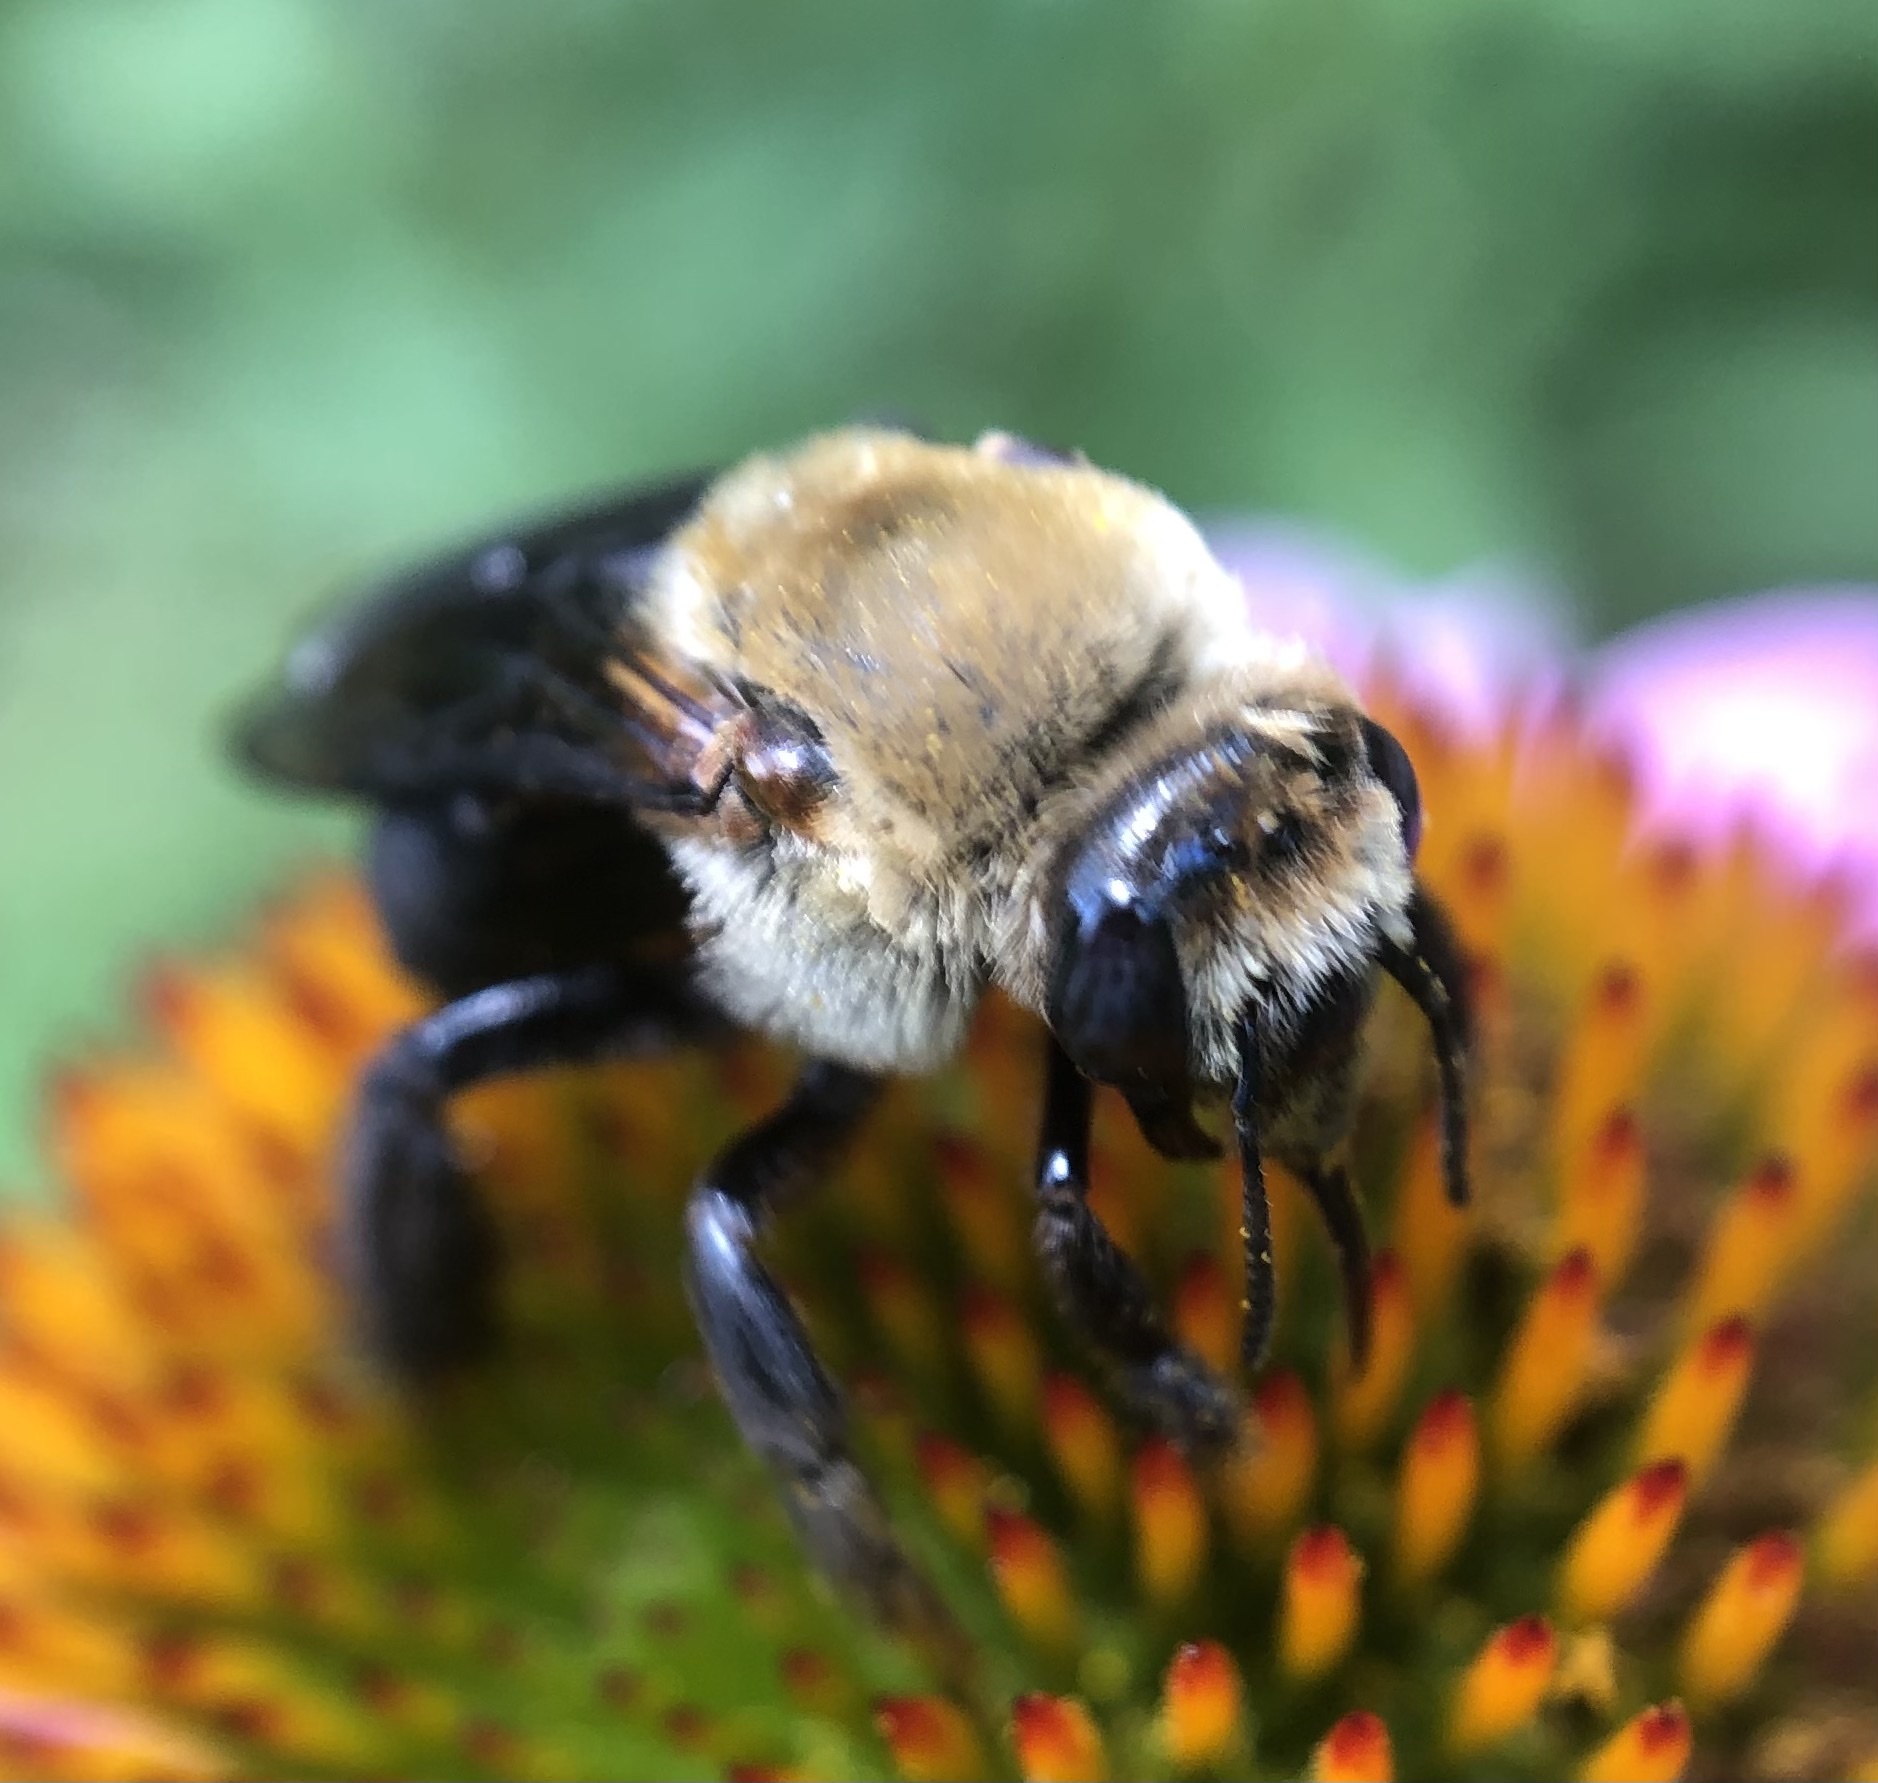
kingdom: Animalia
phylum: Arthropoda
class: Insecta
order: Hymenoptera
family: Apidae
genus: Ptilothrix
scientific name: Ptilothrix bombiformis
